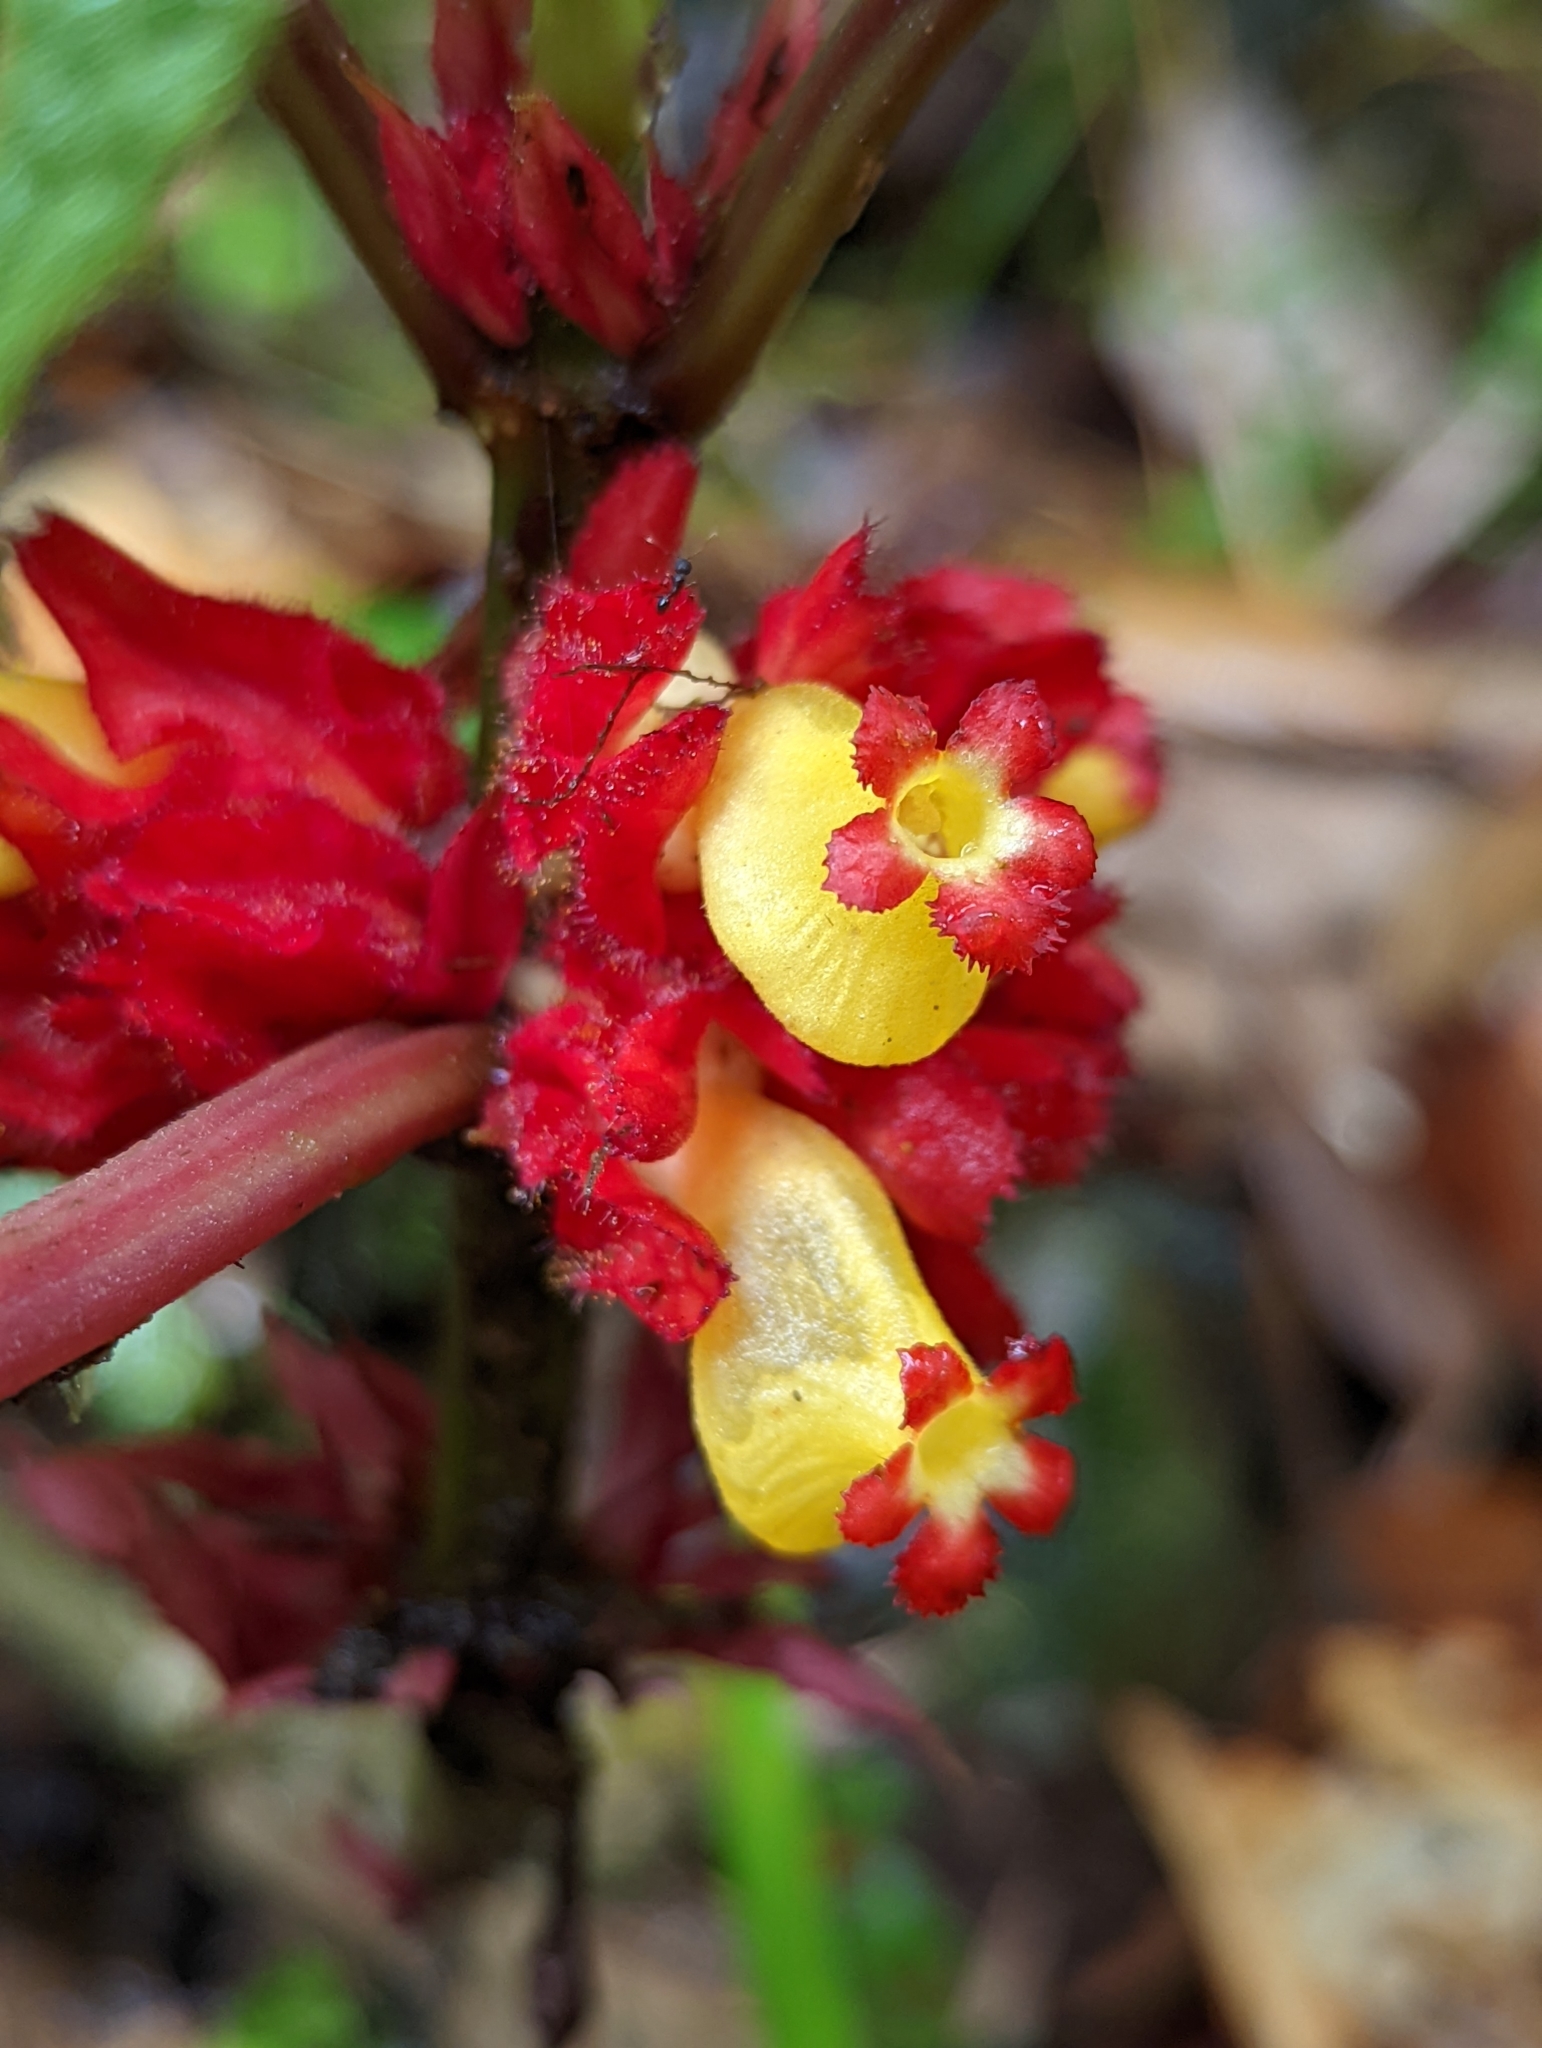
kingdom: Plantae
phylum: Tracheophyta
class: Magnoliopsida
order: Lamiales
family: Gesneriaceae
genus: Drymonia
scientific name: Drymonia teuscheri
